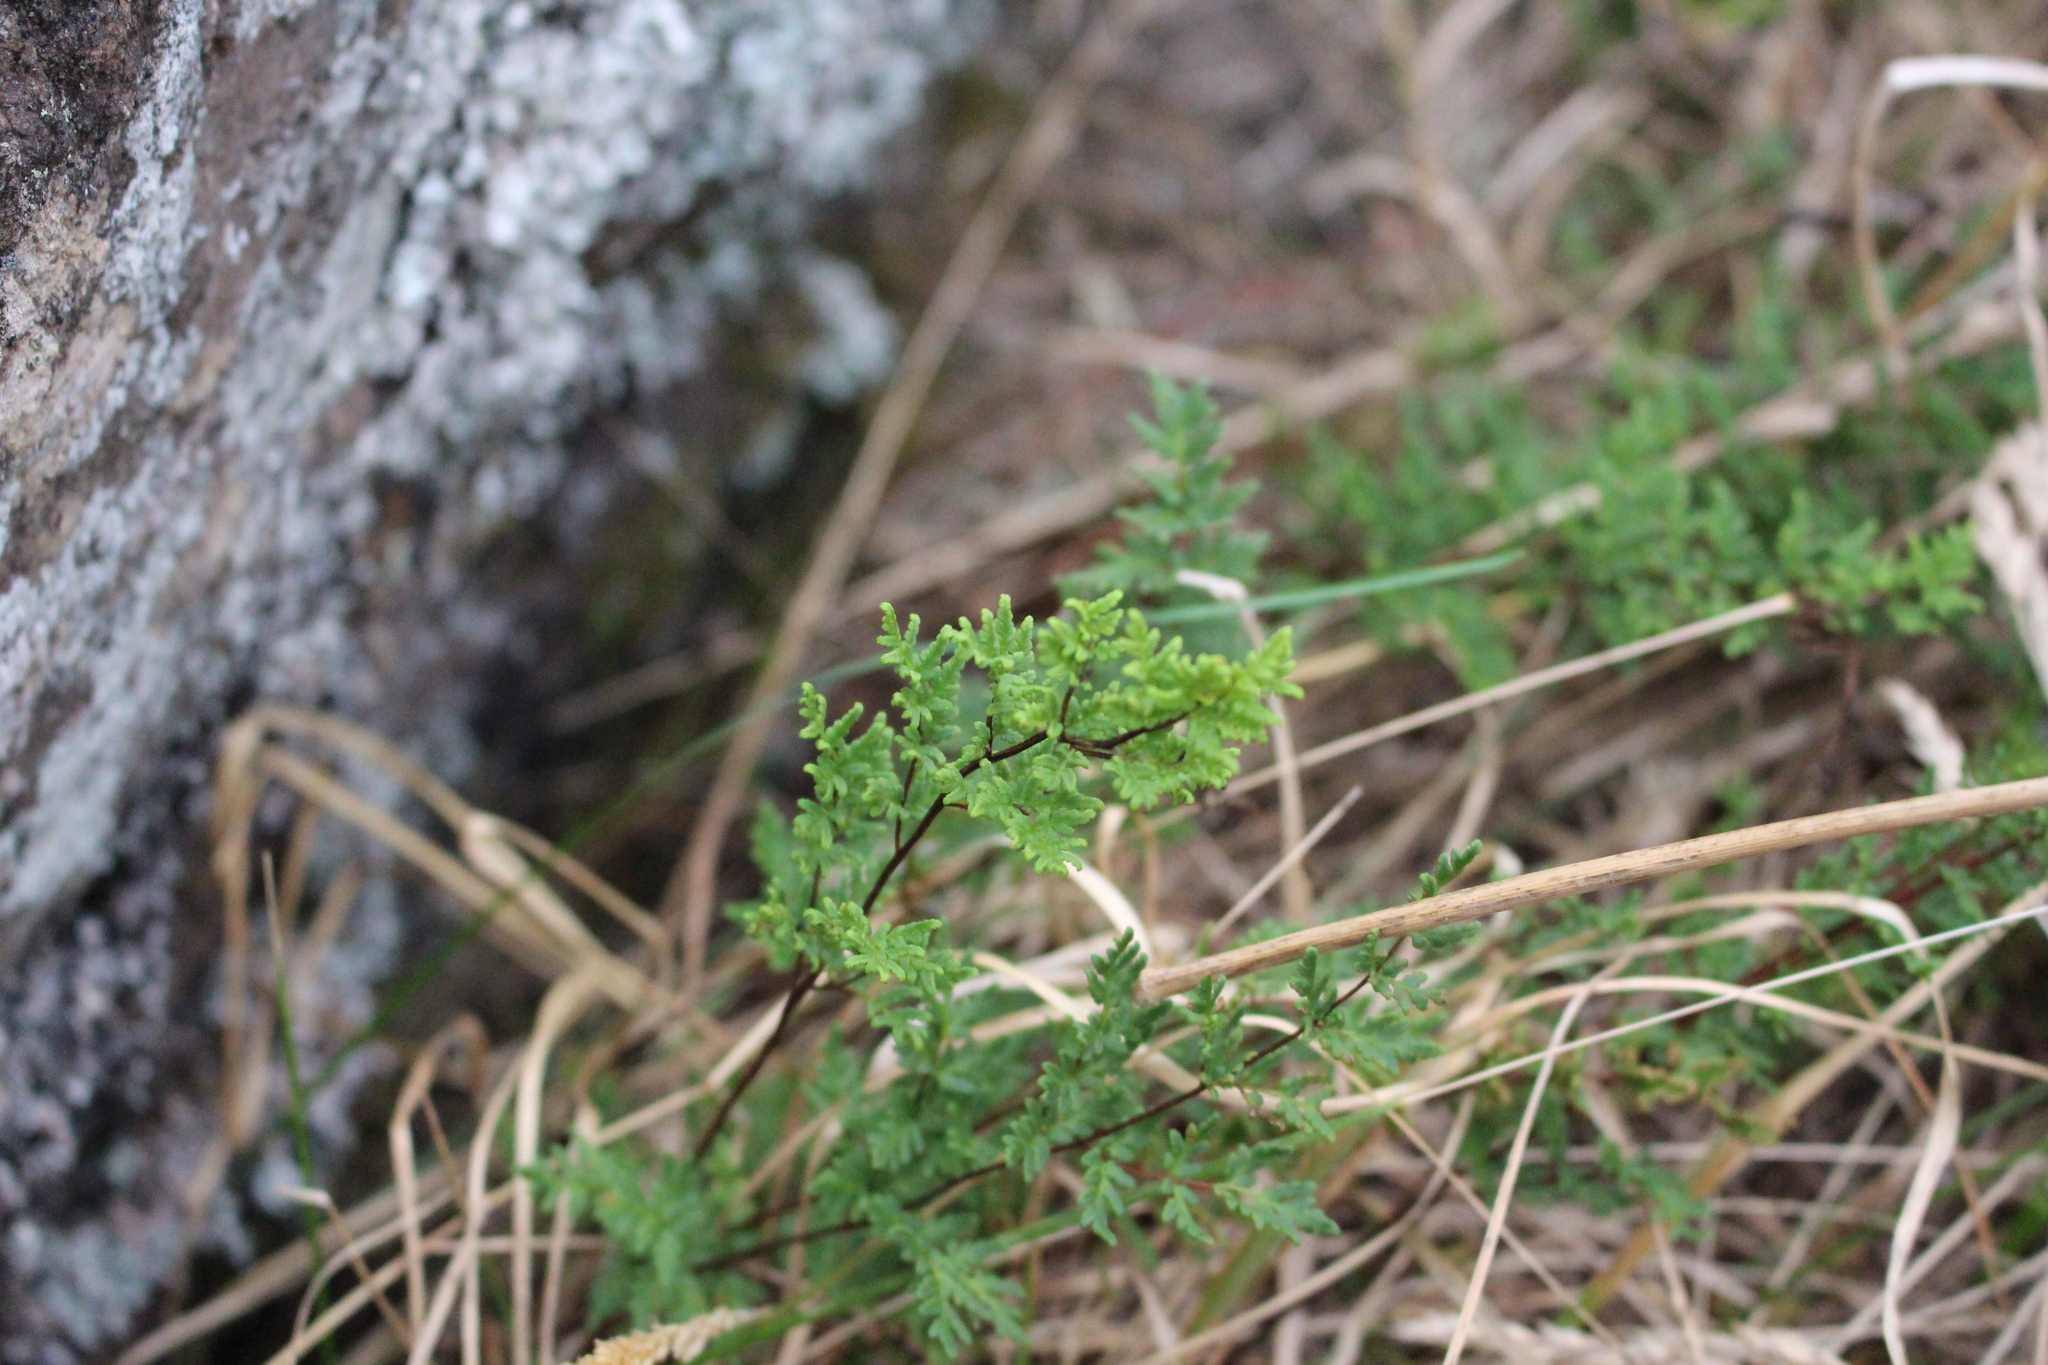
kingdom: Plantae
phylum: Tracheophyta
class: Polypodiopsida
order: Polypodiales
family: Pteridaceae
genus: Cheilanthes
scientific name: Cheilanthes sieberi
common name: Mulga fern
